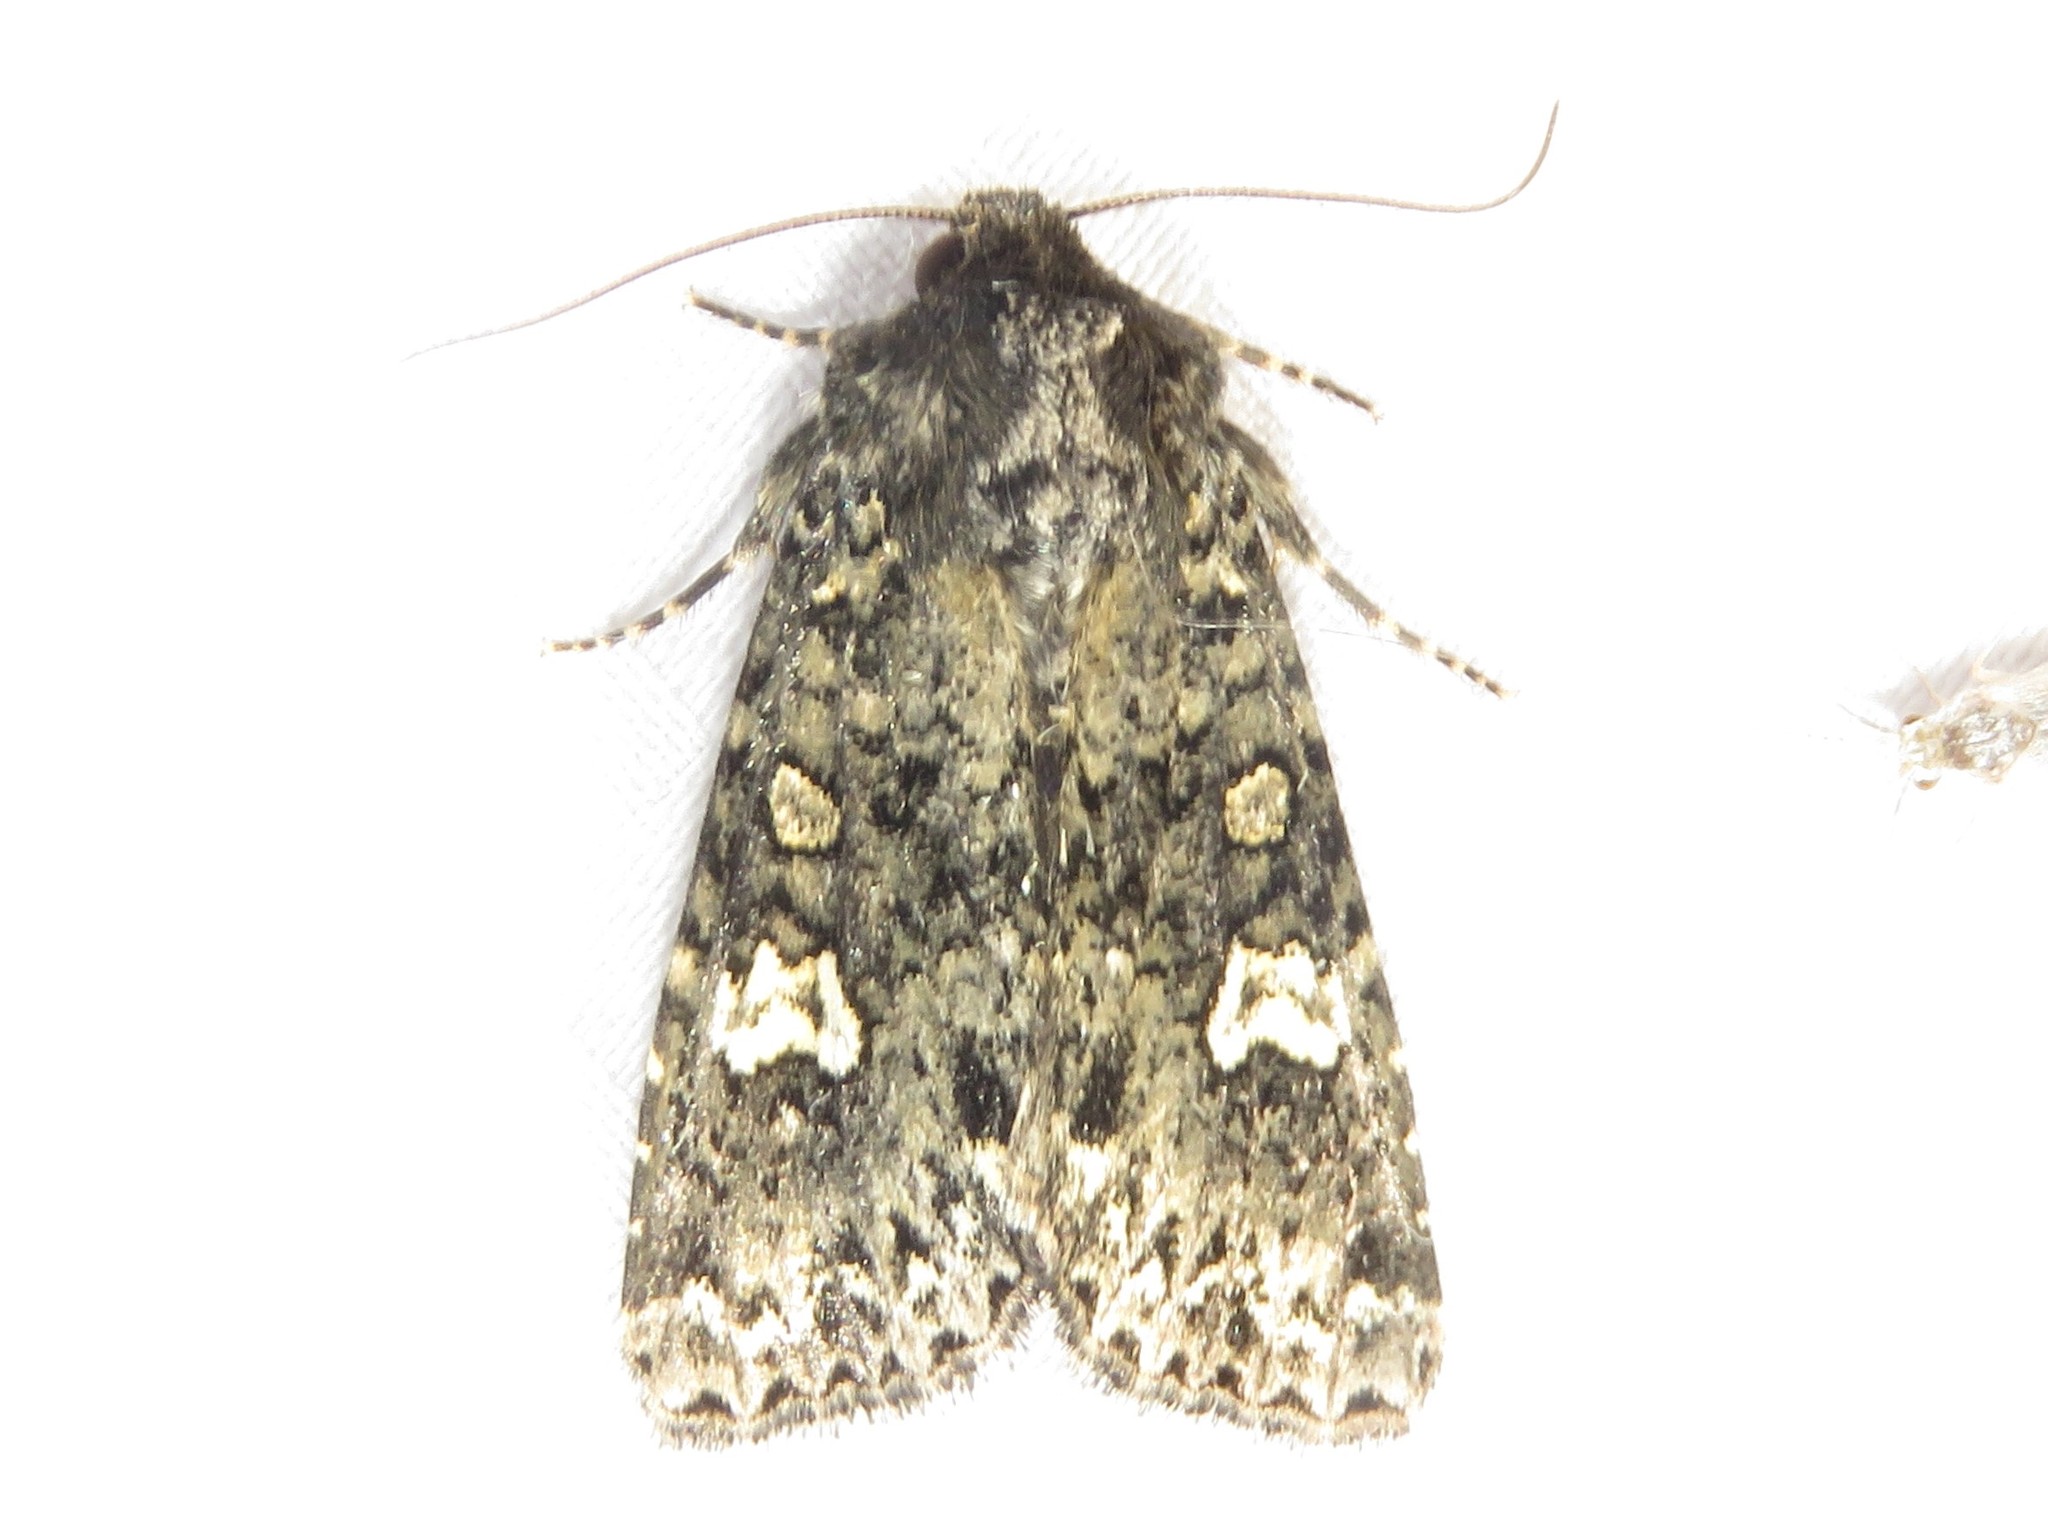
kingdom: Animalia
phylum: Arthropoda
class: Insecta
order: Lepidoptera
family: Noctuidae
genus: Melanchra
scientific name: Melanchra adjuncta
